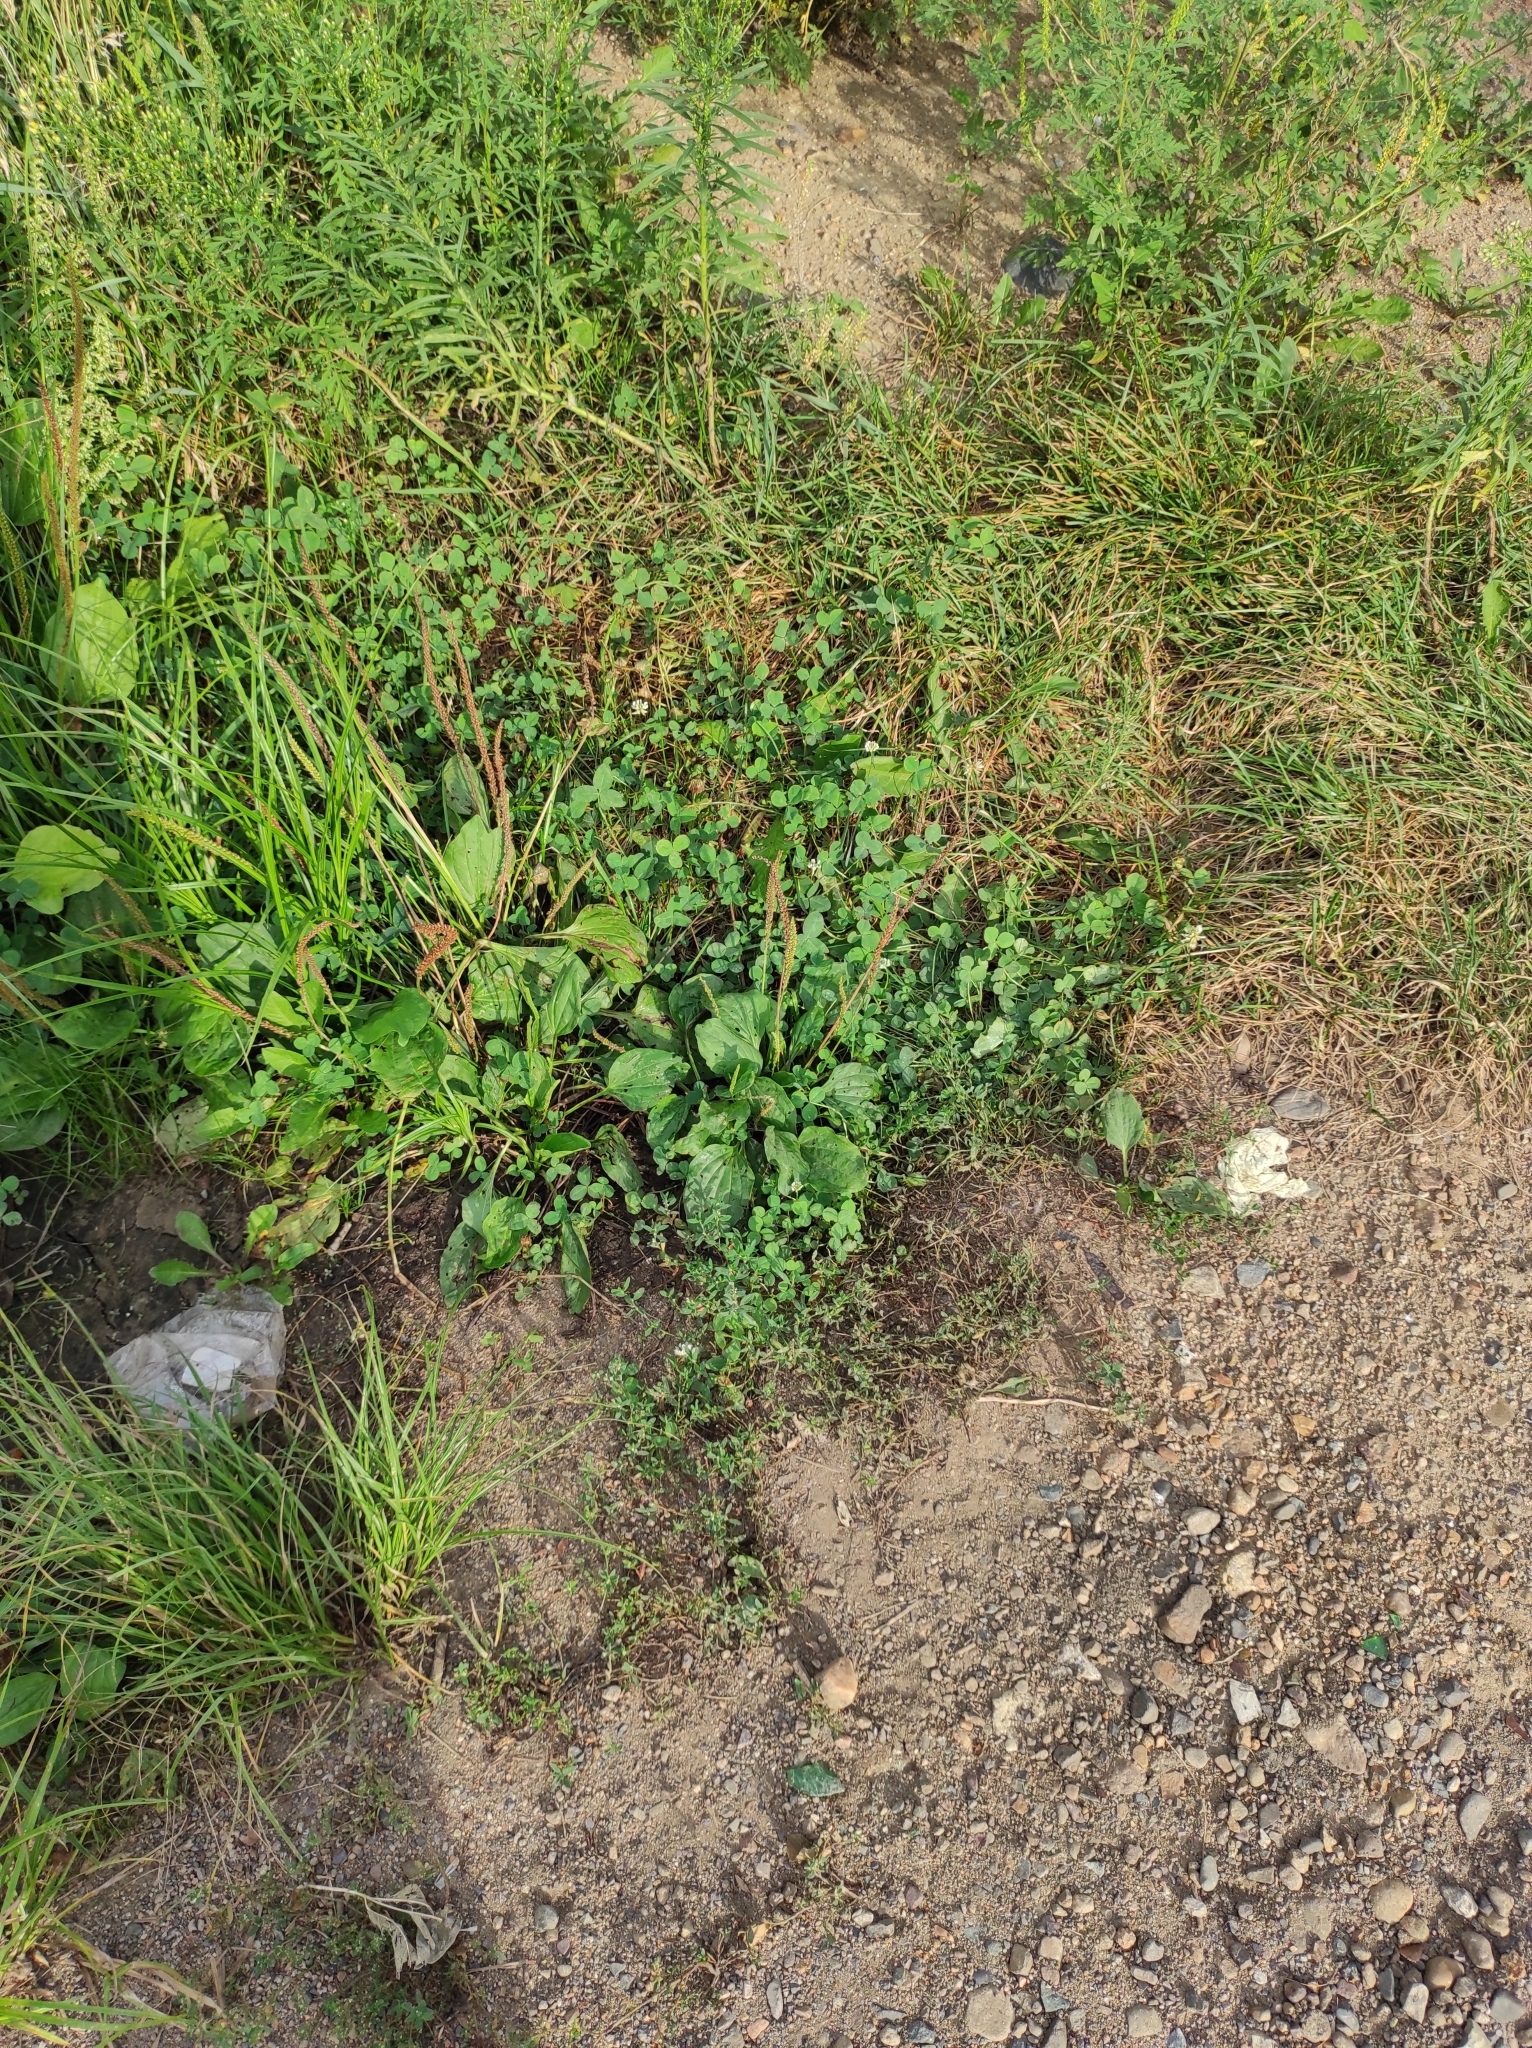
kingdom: Plantae
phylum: Tracheophyta
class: Magnoliopsida
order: Lamiales
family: Plantaginaceae
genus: Plantago
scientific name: Plantago major
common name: Common plantain
